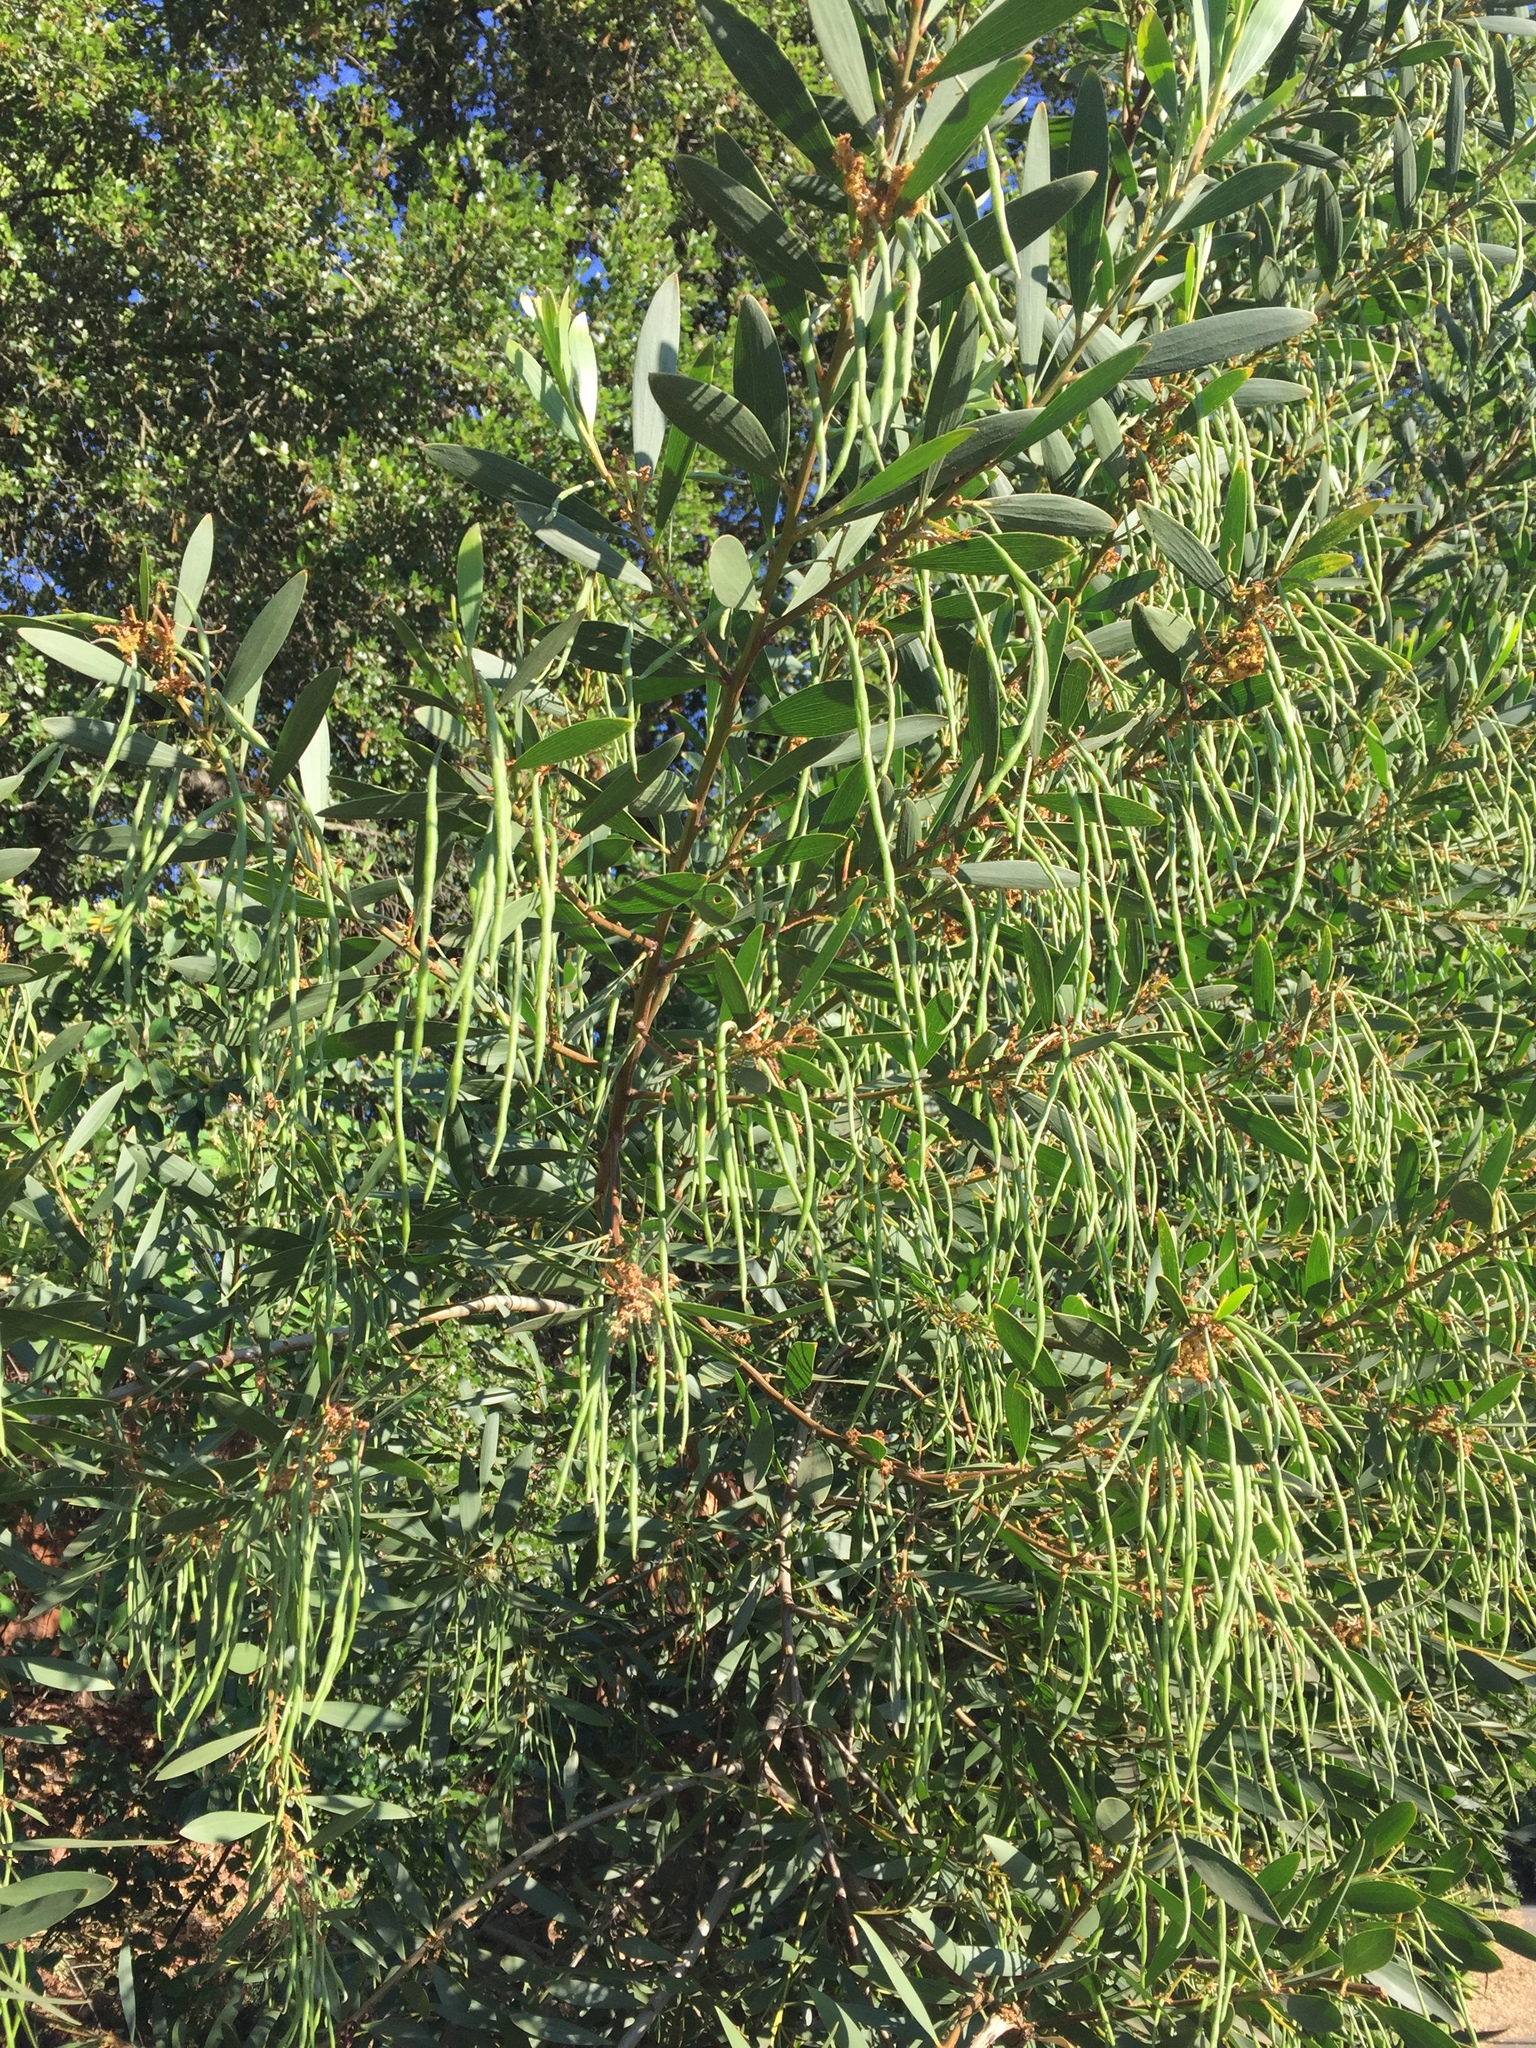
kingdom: Plantae
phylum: Tracheophyta
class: Magnoliopsida
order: Fabales
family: Fabaceae
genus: Acacia
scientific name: Acacia longifolia
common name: Sydney golden wattle
